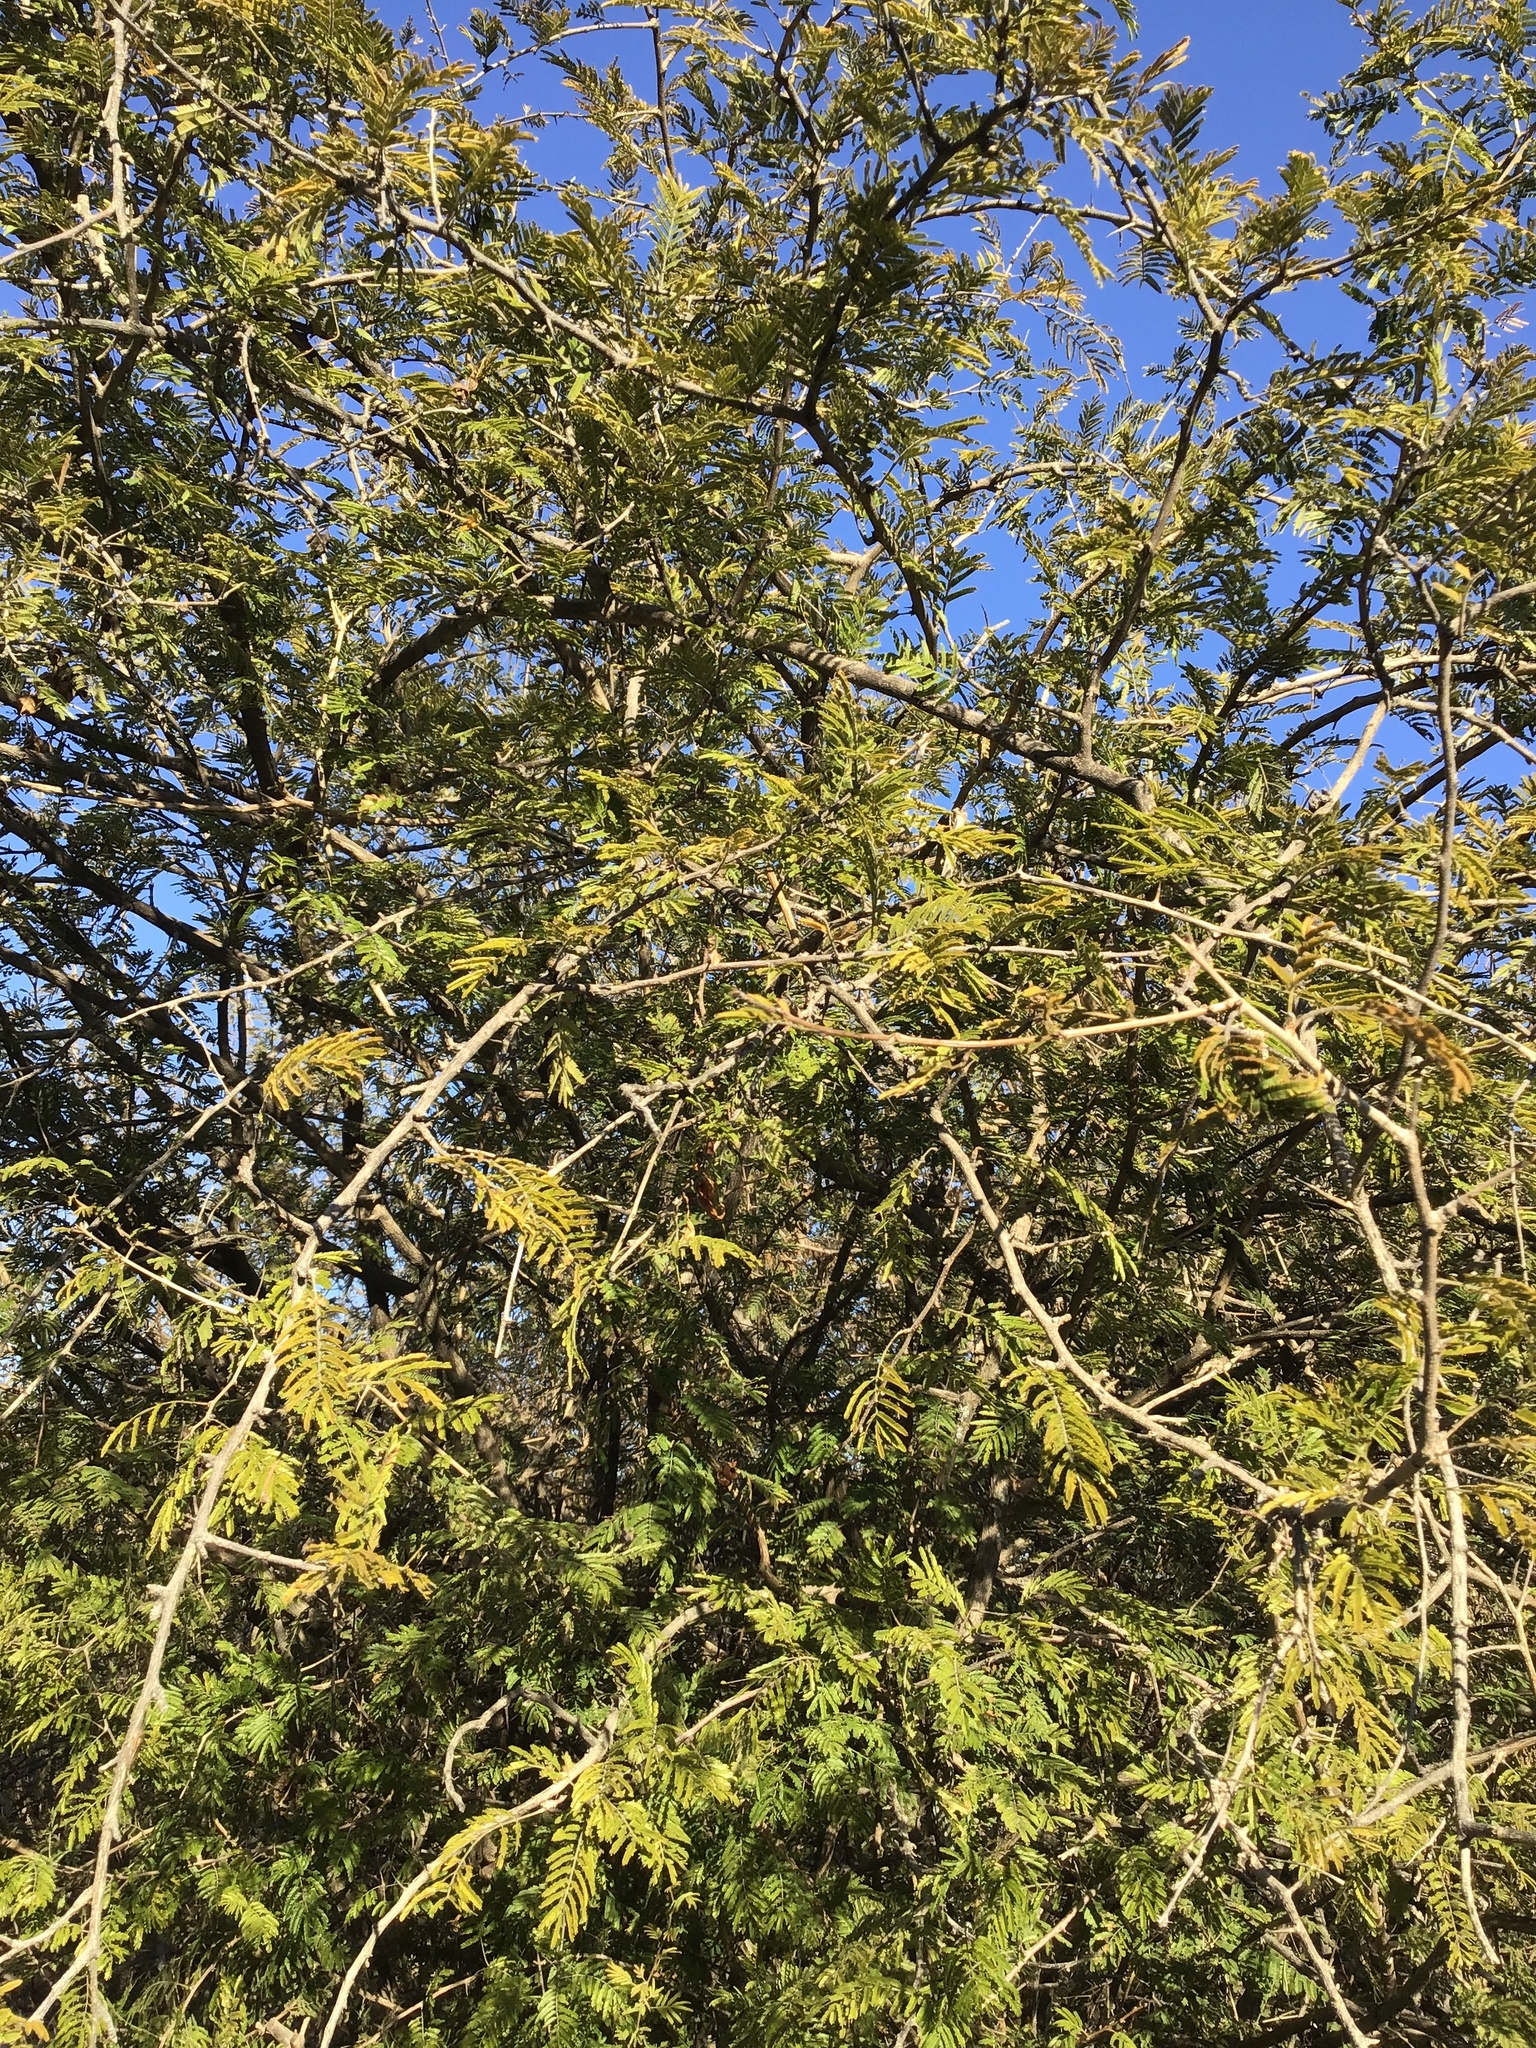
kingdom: Plantae
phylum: Tracheophyta
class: Magnoliopsida
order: Fabales
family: Fabaceae
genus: Dichrostachys
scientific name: Dichrostachys cinerea
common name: Sicklebush
